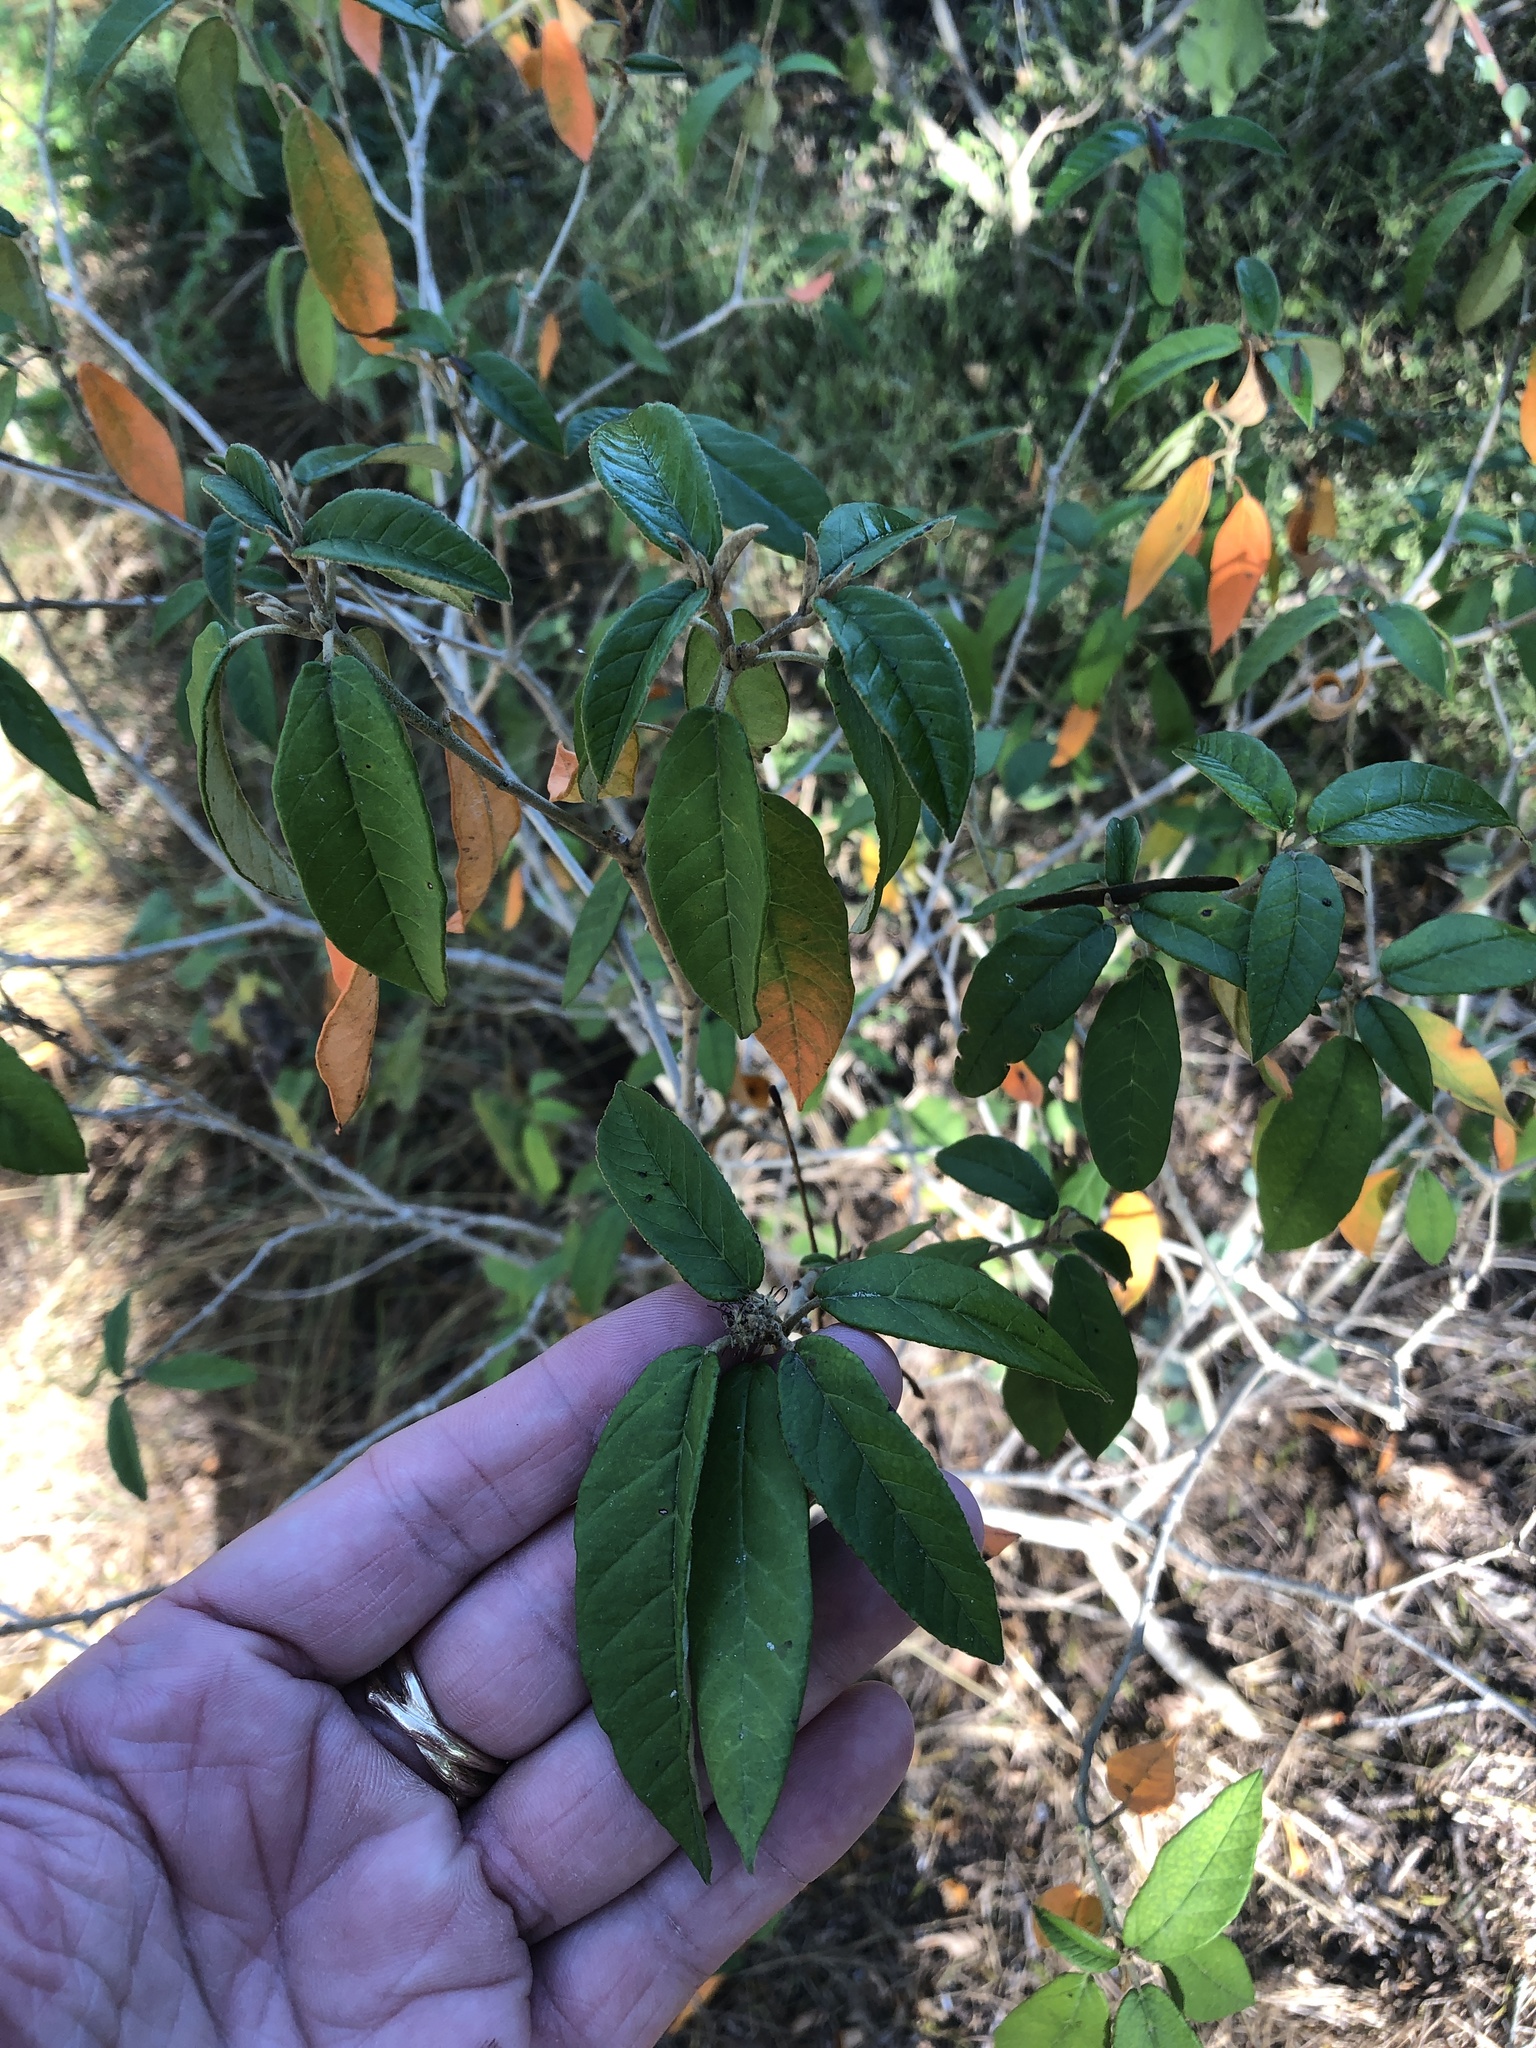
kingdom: Plantae
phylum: Tracheophyta
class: Magnoliopsida
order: Malpighiales
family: Euphorbiaceae
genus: Croton
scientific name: Croton cortesianus
